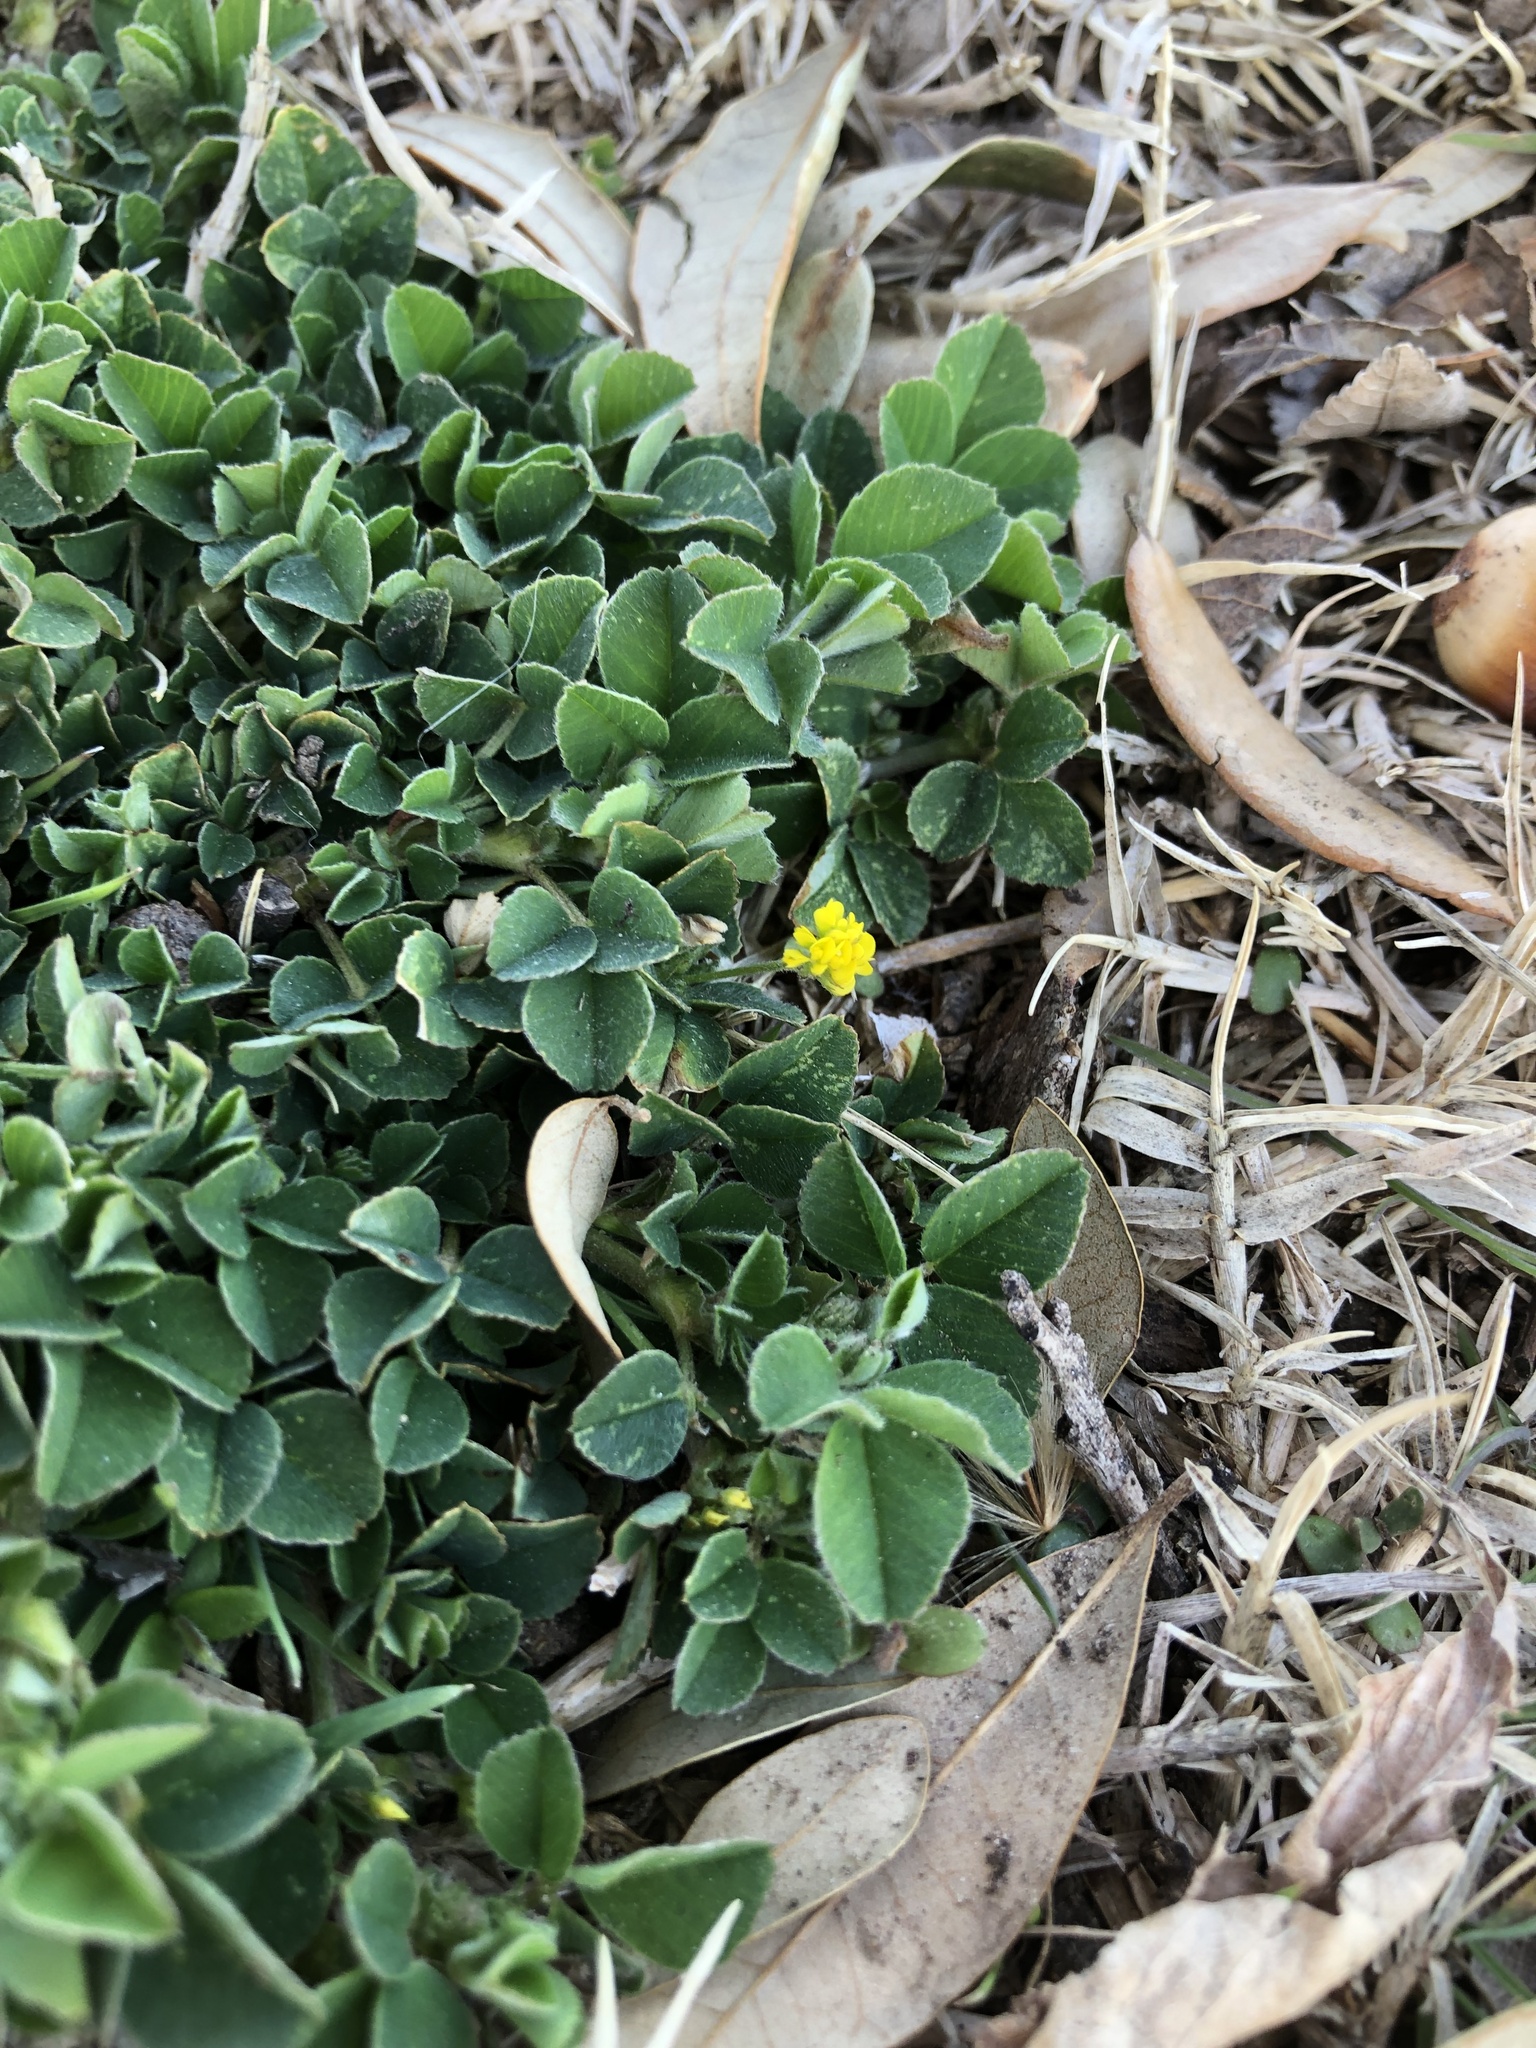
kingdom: Plantae
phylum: Tracheophyta
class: Magnoliopsida
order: Fabales
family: Fabaceae
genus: Medicago
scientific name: Medicago lupulina
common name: Black medick
